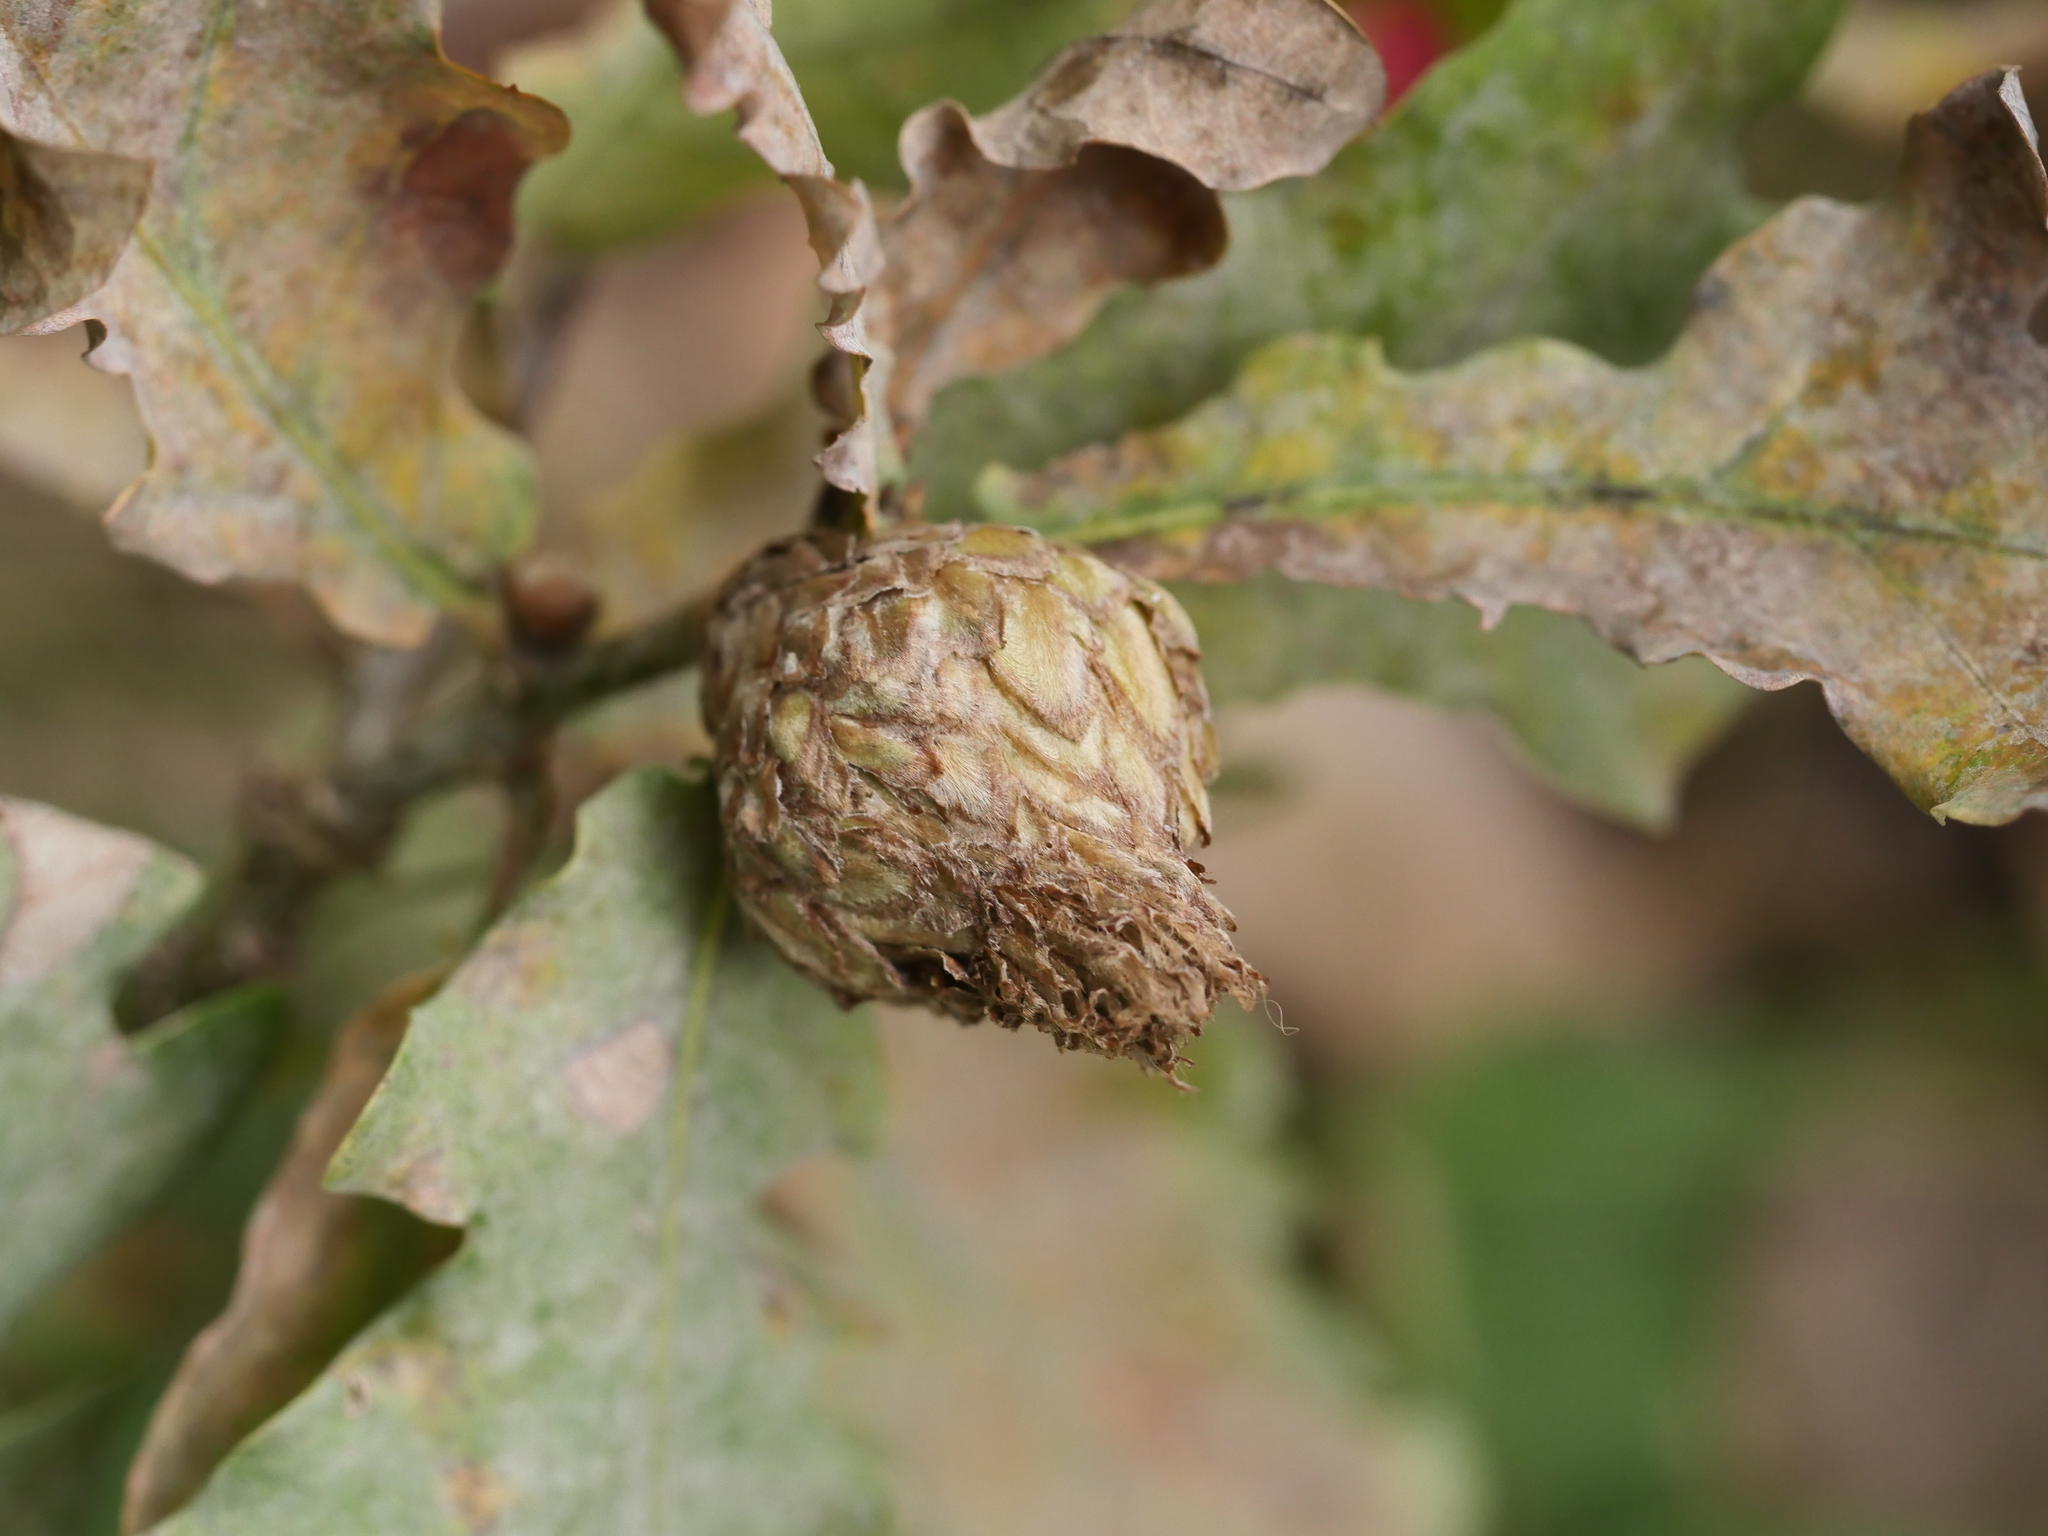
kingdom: Animalia
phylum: Arthropoda
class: Insecta
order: Hymenoptera
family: Cynipidae
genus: Andricus
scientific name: Andricus foecundatrix
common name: Artichoke gall
